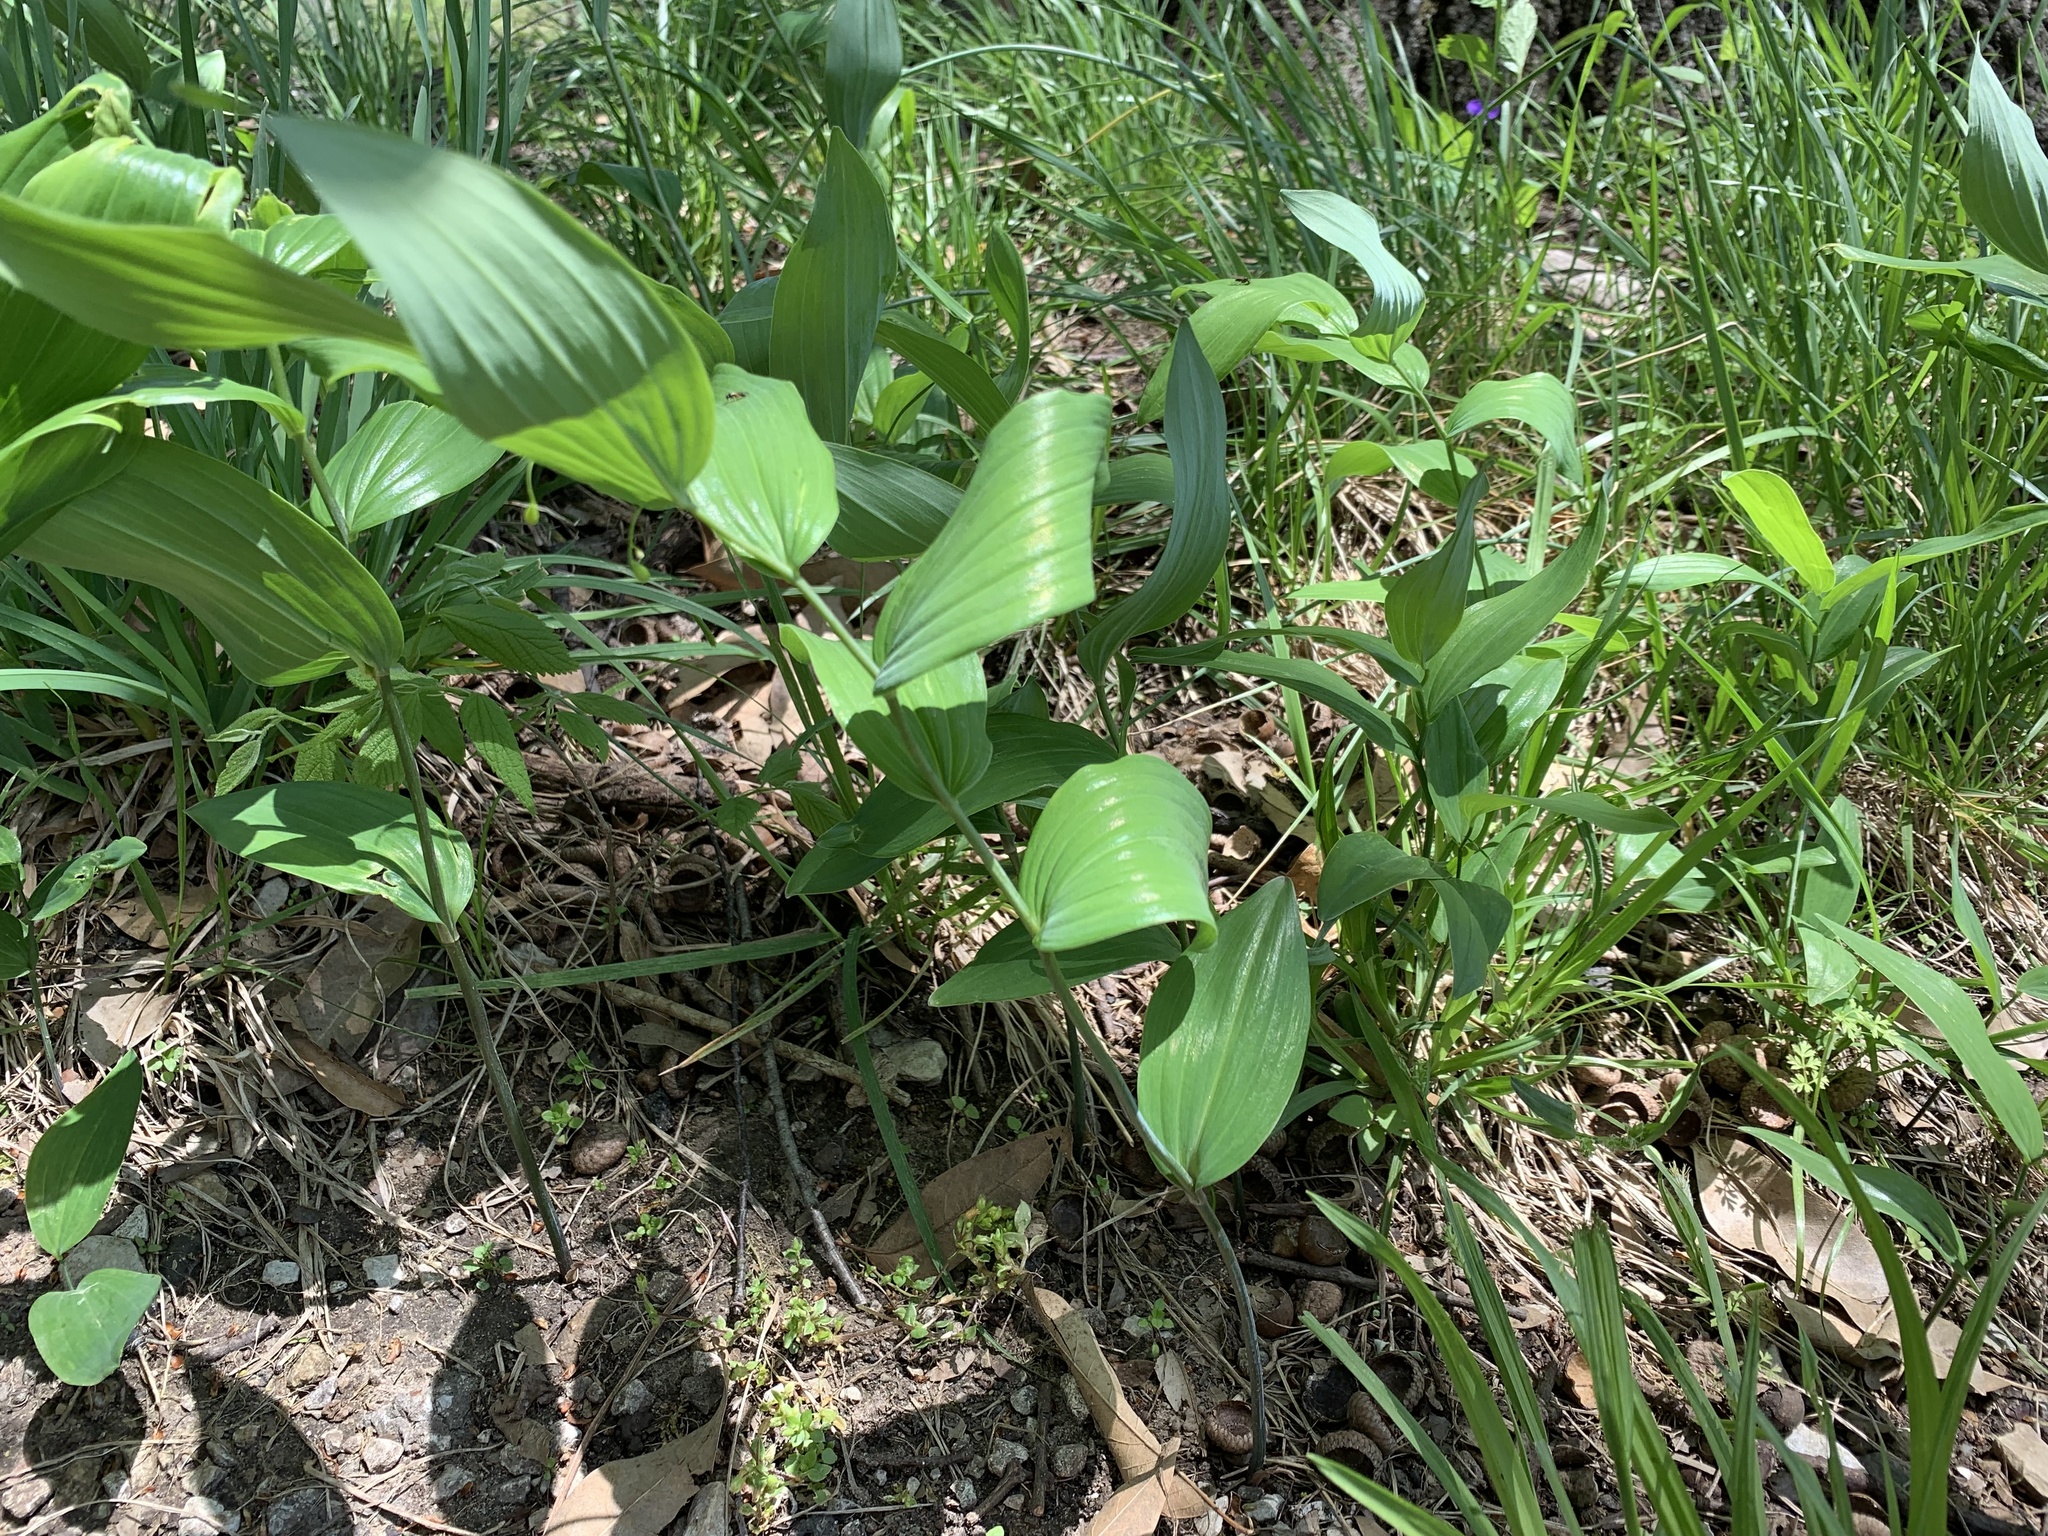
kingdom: Plantae
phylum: Tracheophyta
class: Liliopsida
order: Asparagales
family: Asparagaceae
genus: Polygonatum
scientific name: Polygonatum biflorum
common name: American solomon's-seal
